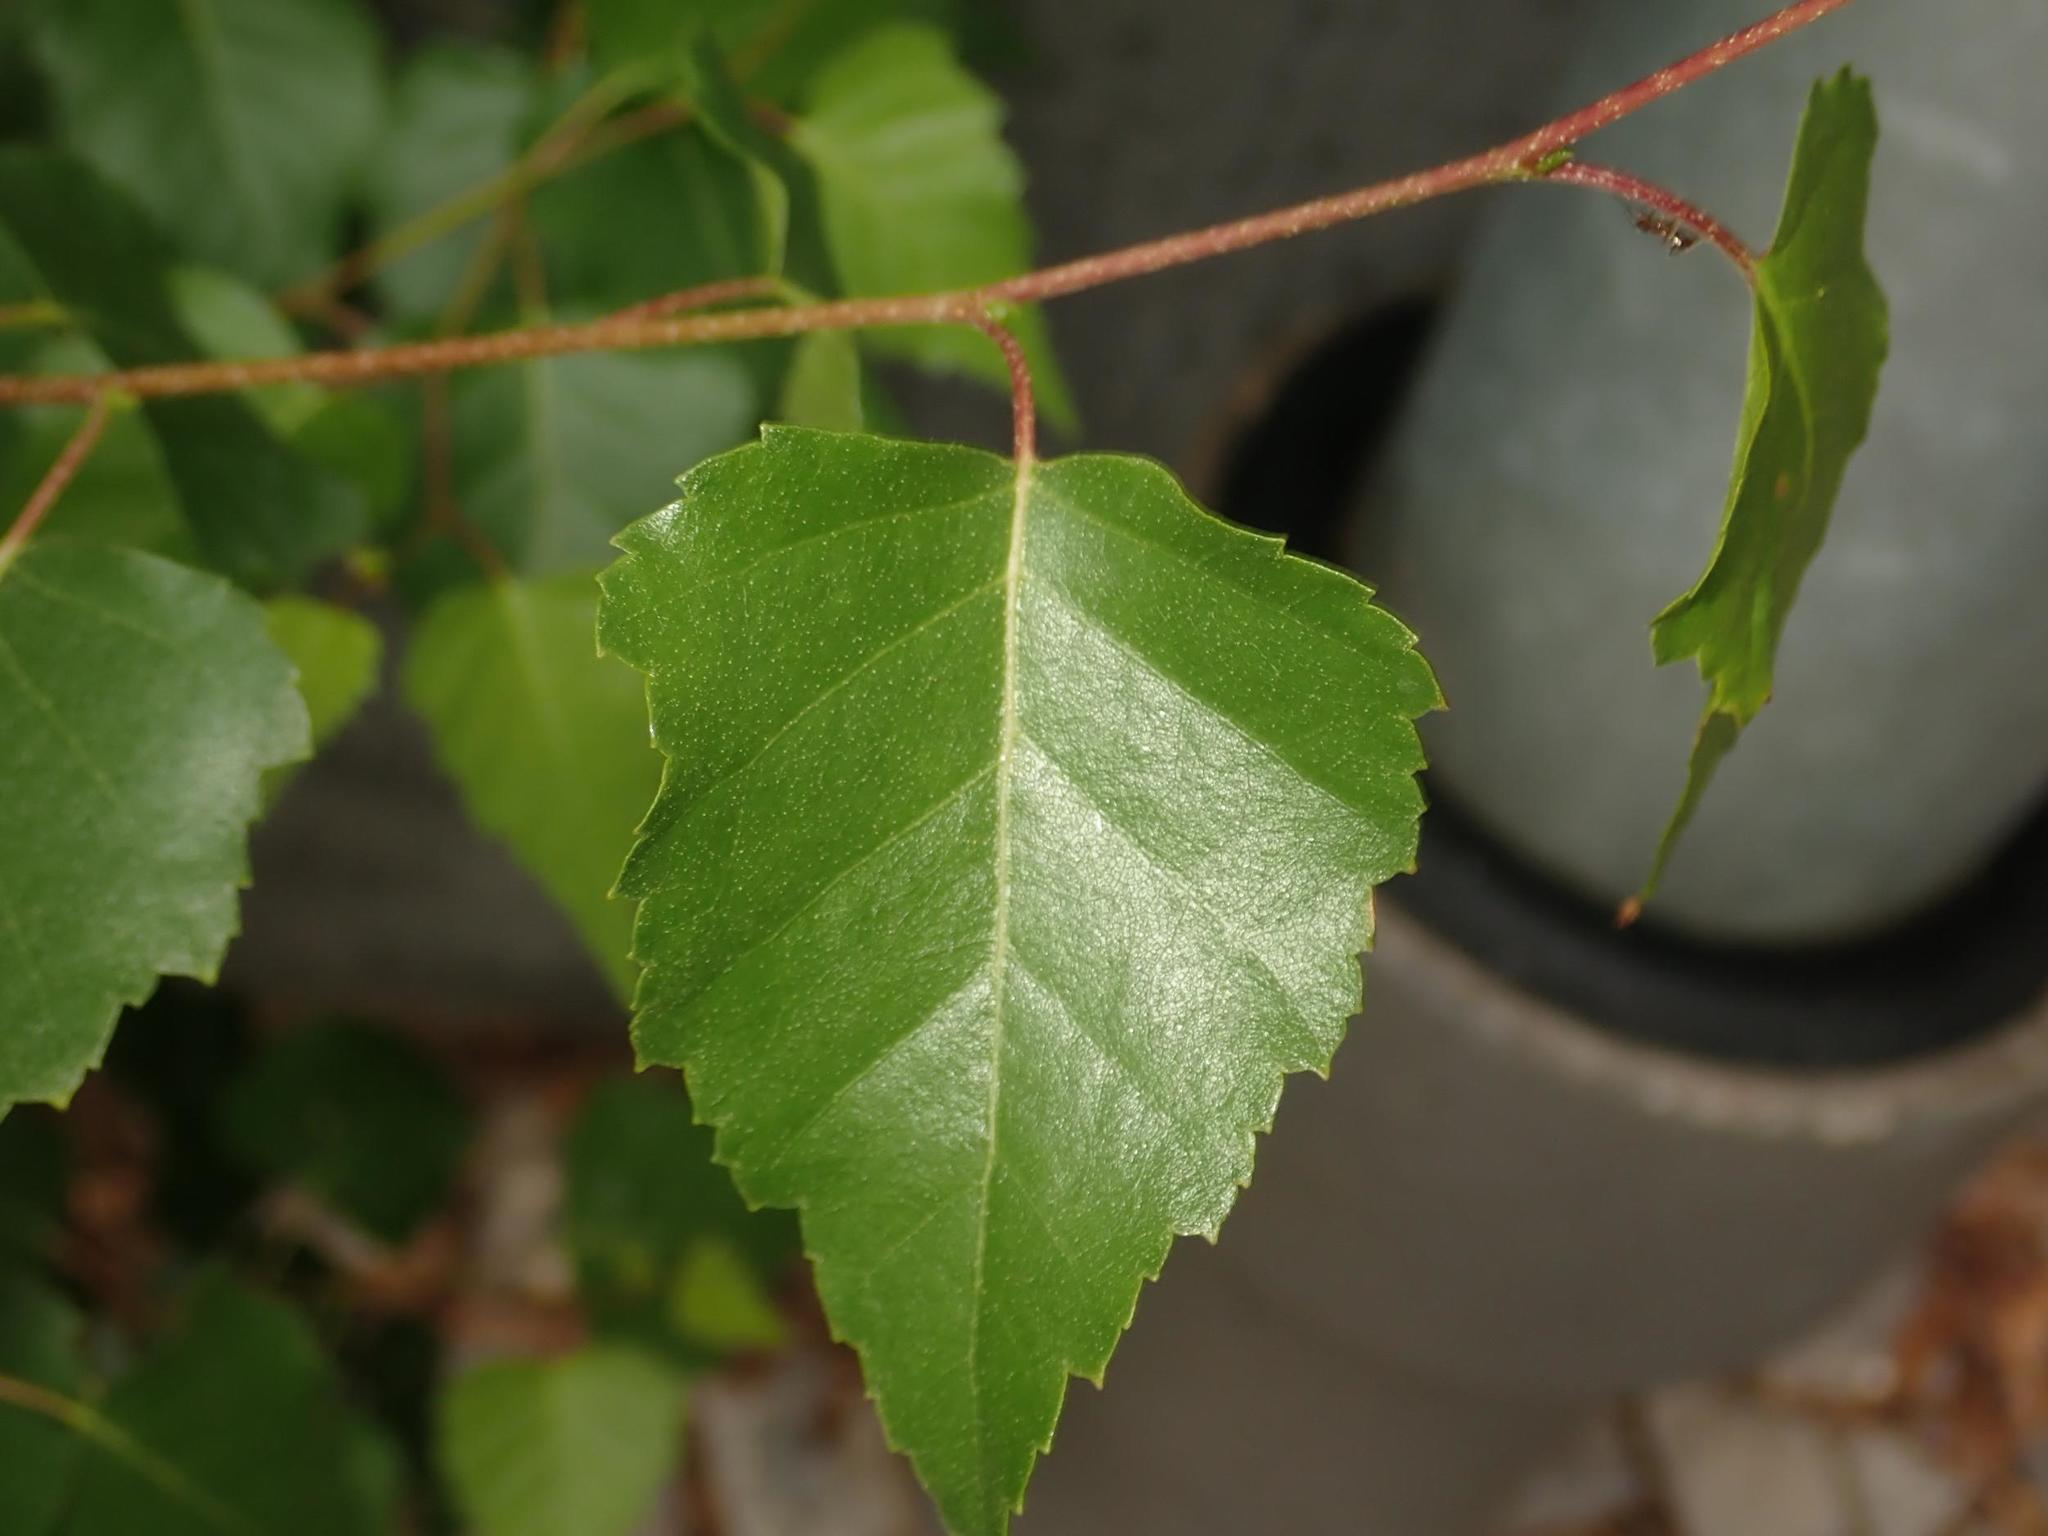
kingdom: Plantae
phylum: Tracheophyta
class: Magnoliopsida
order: Fagales
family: Betulaceae
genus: Betula
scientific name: Betula pendula
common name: Silver birch
